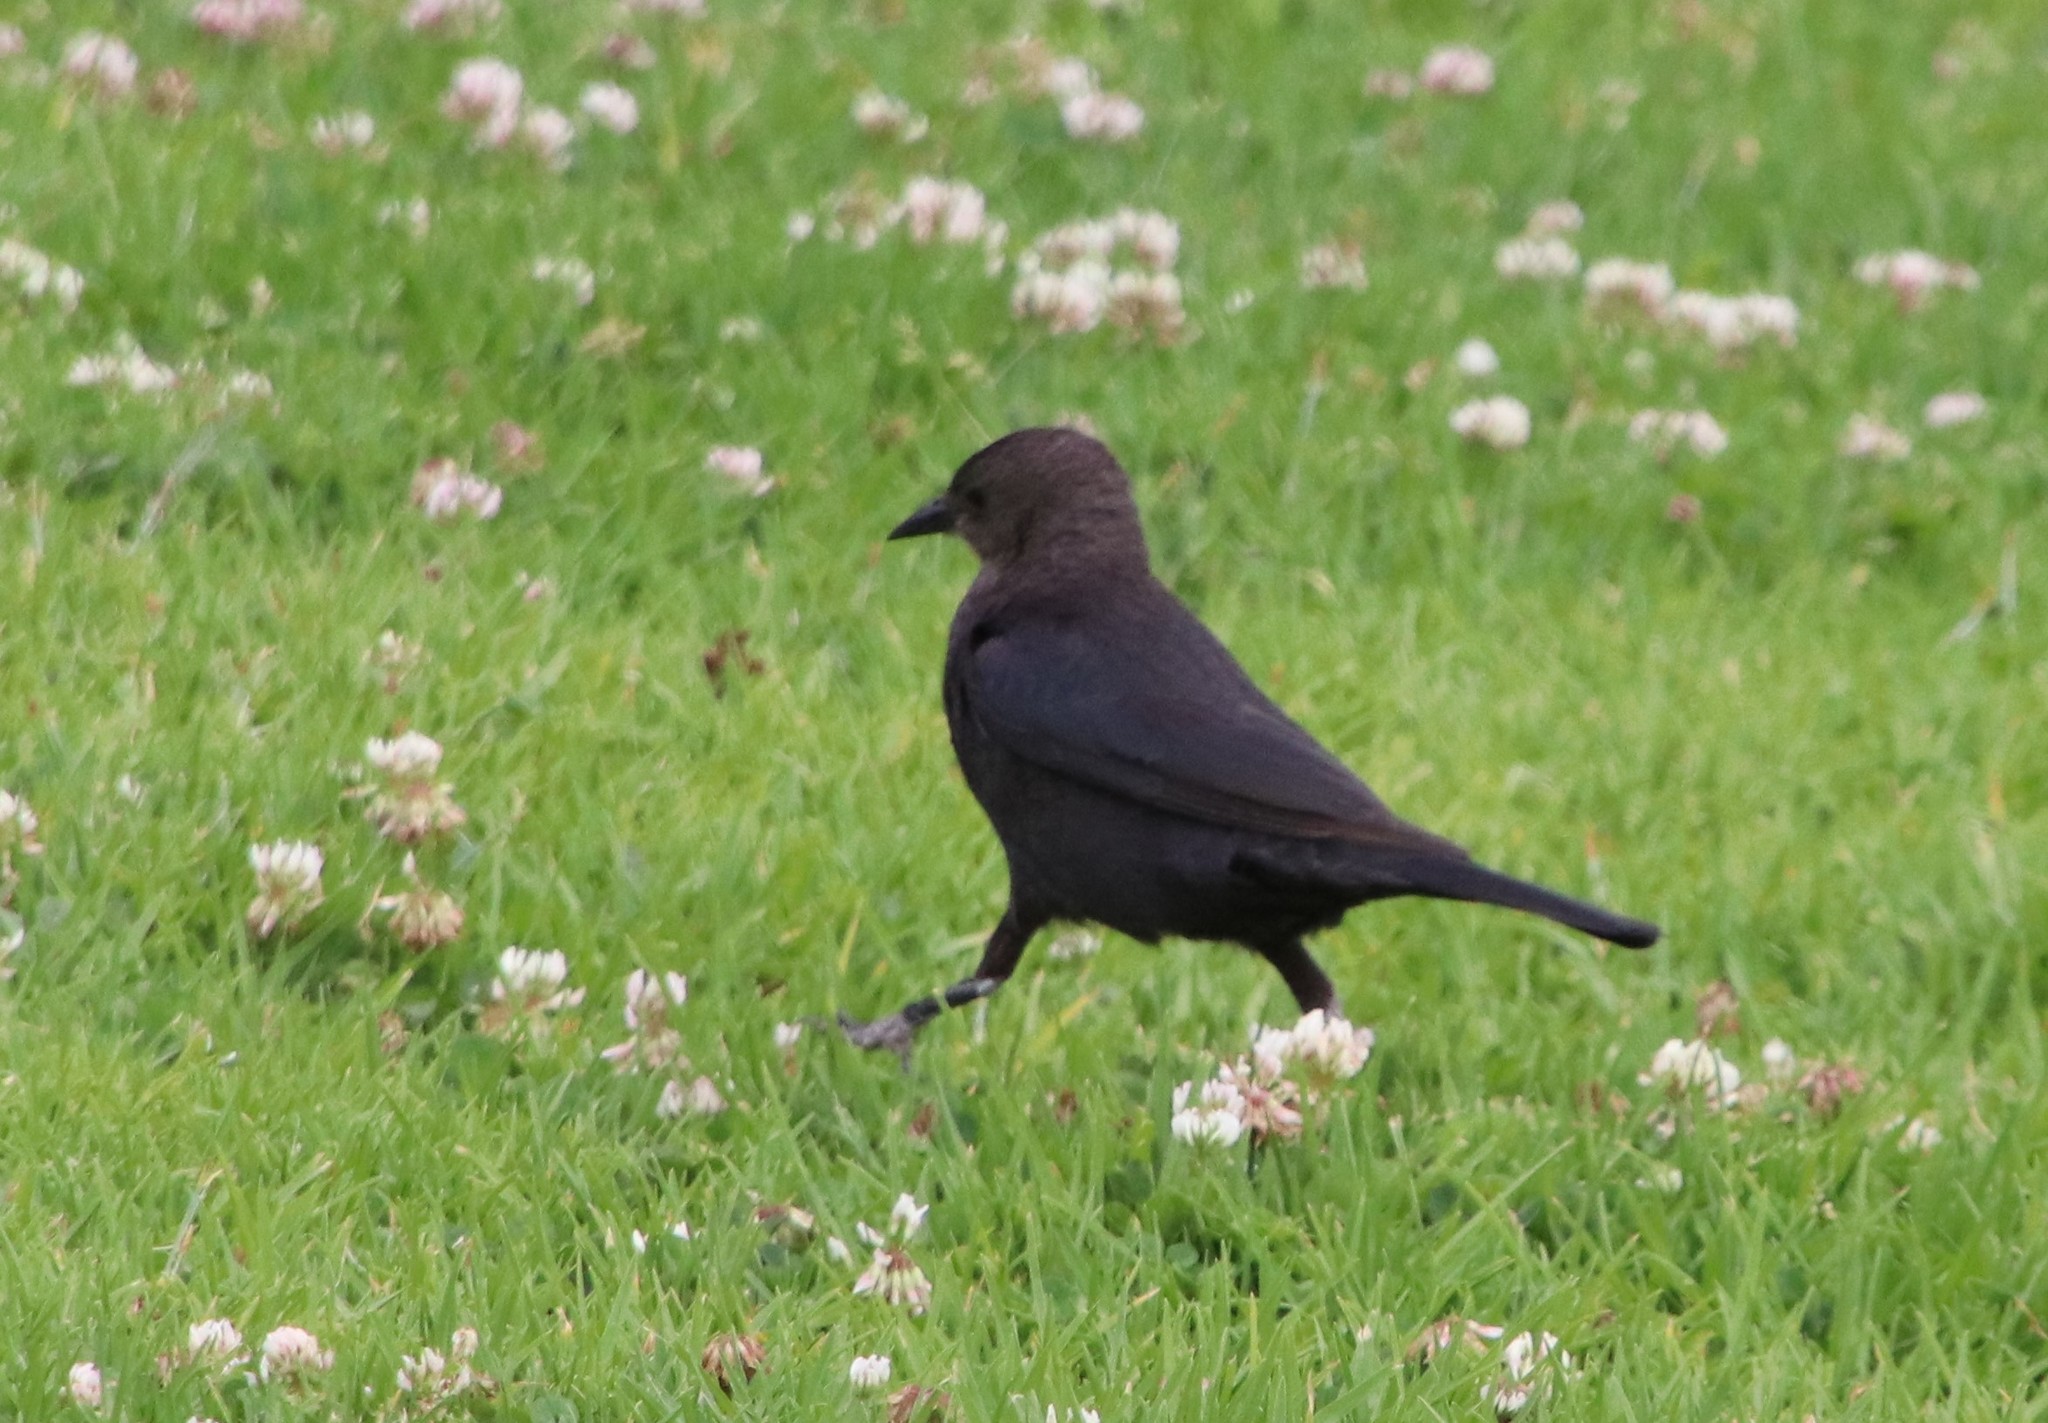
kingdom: Animalia
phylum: Chordata
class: Aves
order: Passeriformes
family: Icteridae
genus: Euphagus
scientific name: Euphagus cyanocephalus
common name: Brewer's blackbird
